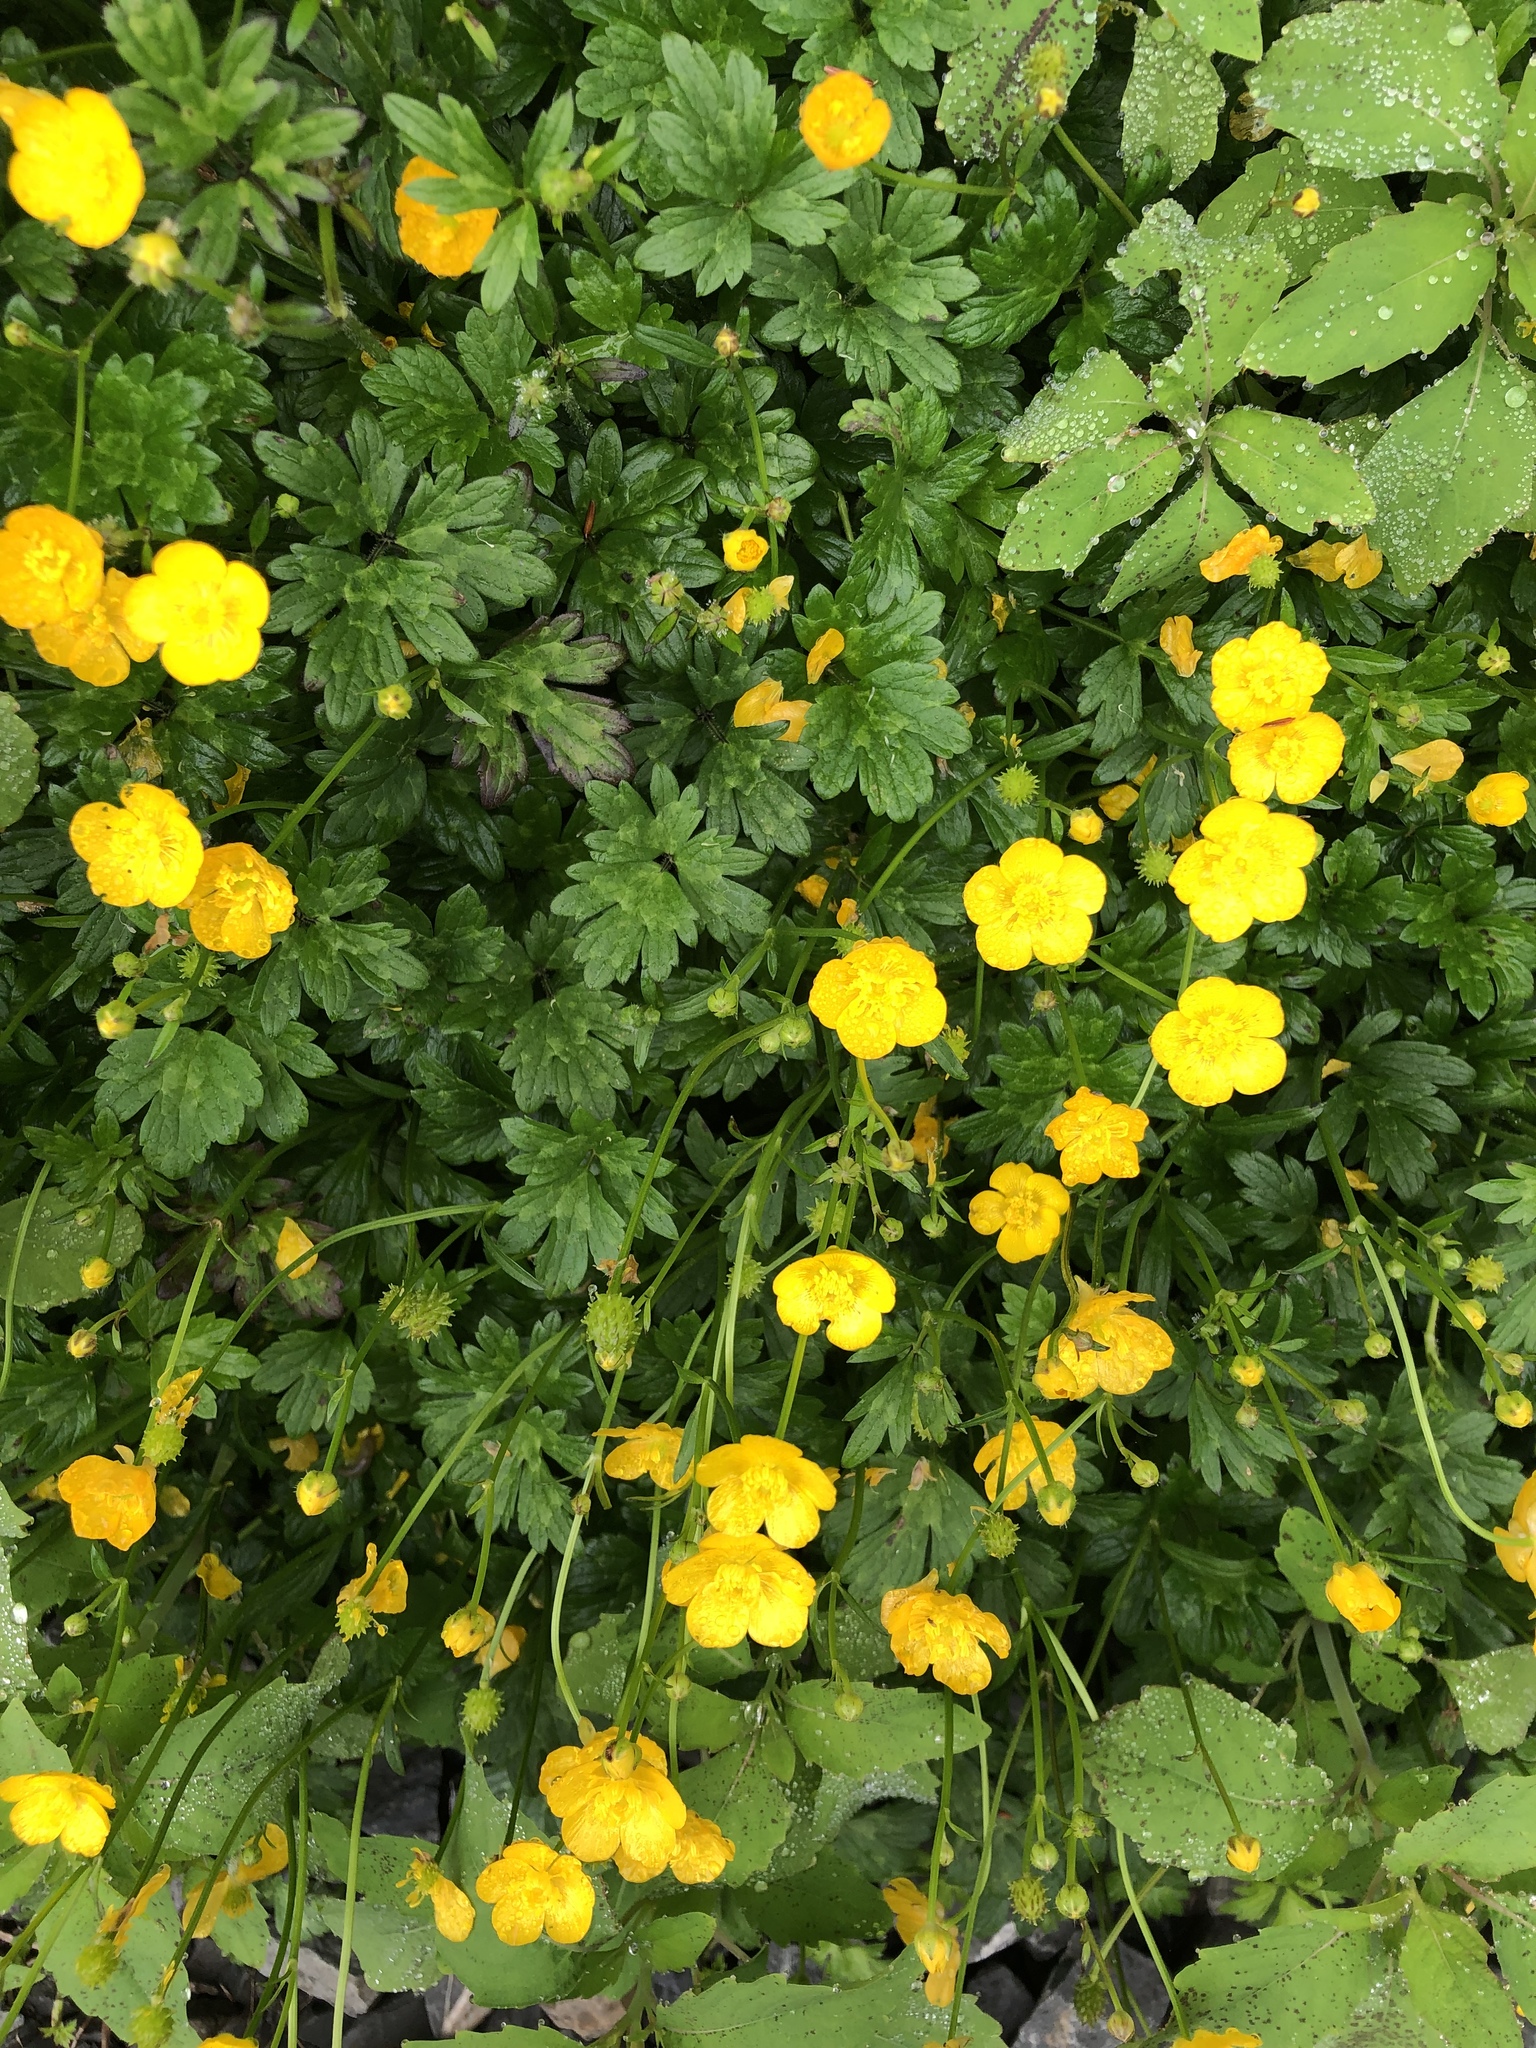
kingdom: Plantae
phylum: Tracheophyta
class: Magnoliopsida
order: Ranunculales
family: Ranunculaceae
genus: Ranunculus
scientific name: Ranunculus repens
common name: Creeping buttercup
